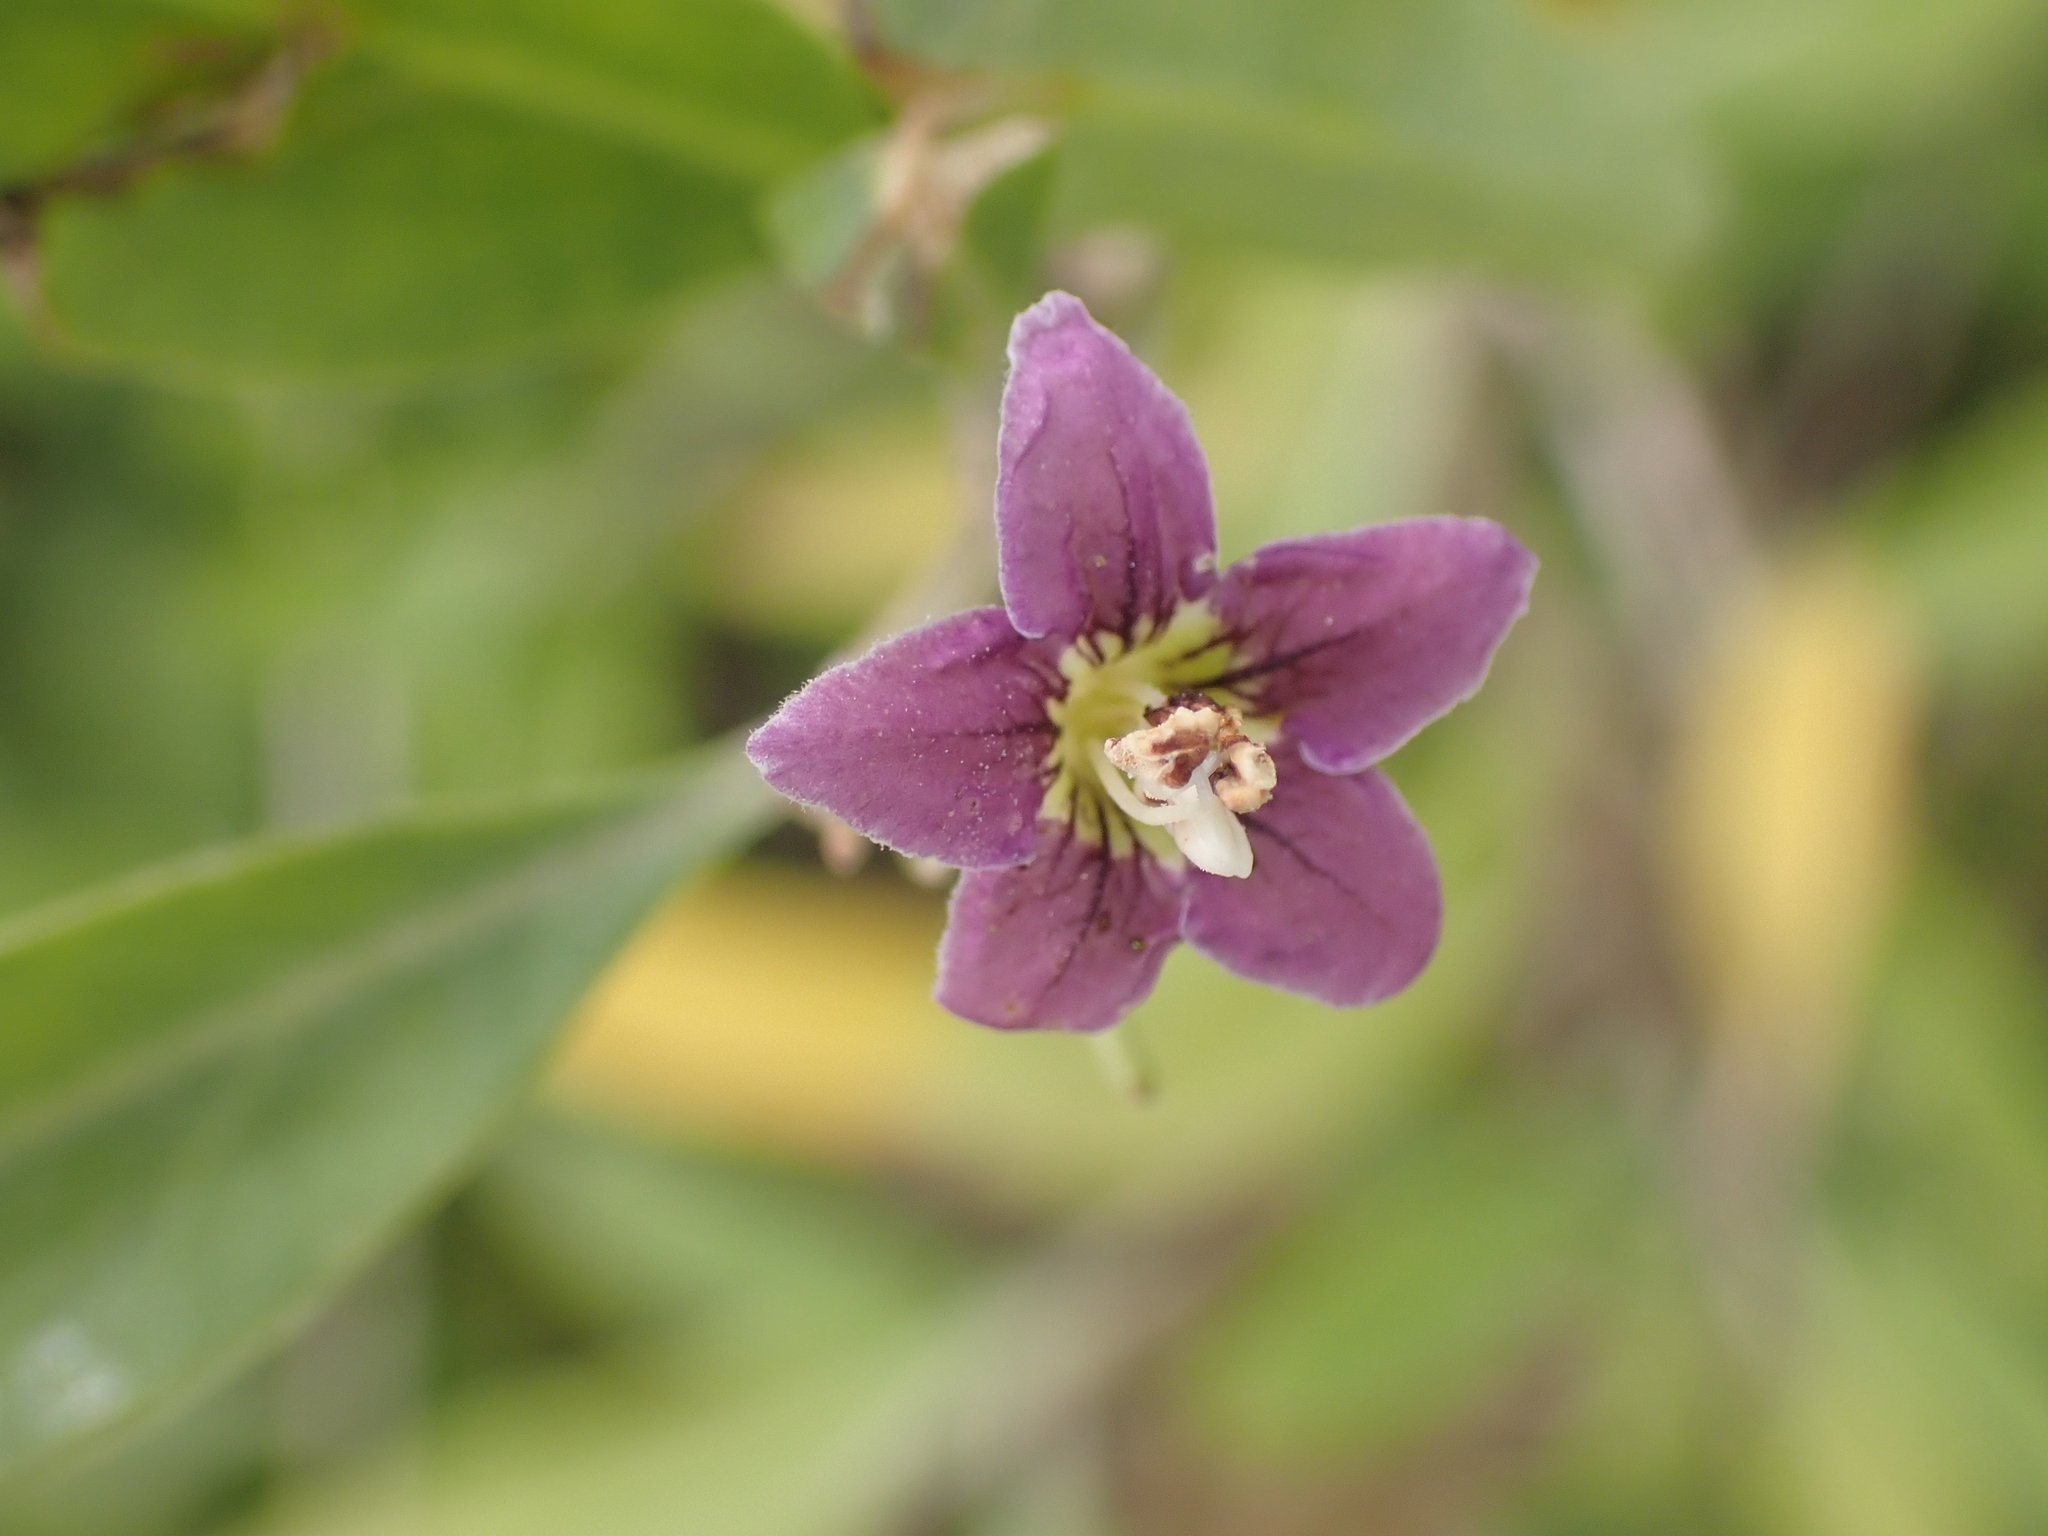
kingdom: Plantae
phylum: Tracheophyta
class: Magnoliopsida
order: Solanales
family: Solanaceae
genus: Lycium
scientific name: Lycium barbarum
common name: Duke of argyll's teaplant
